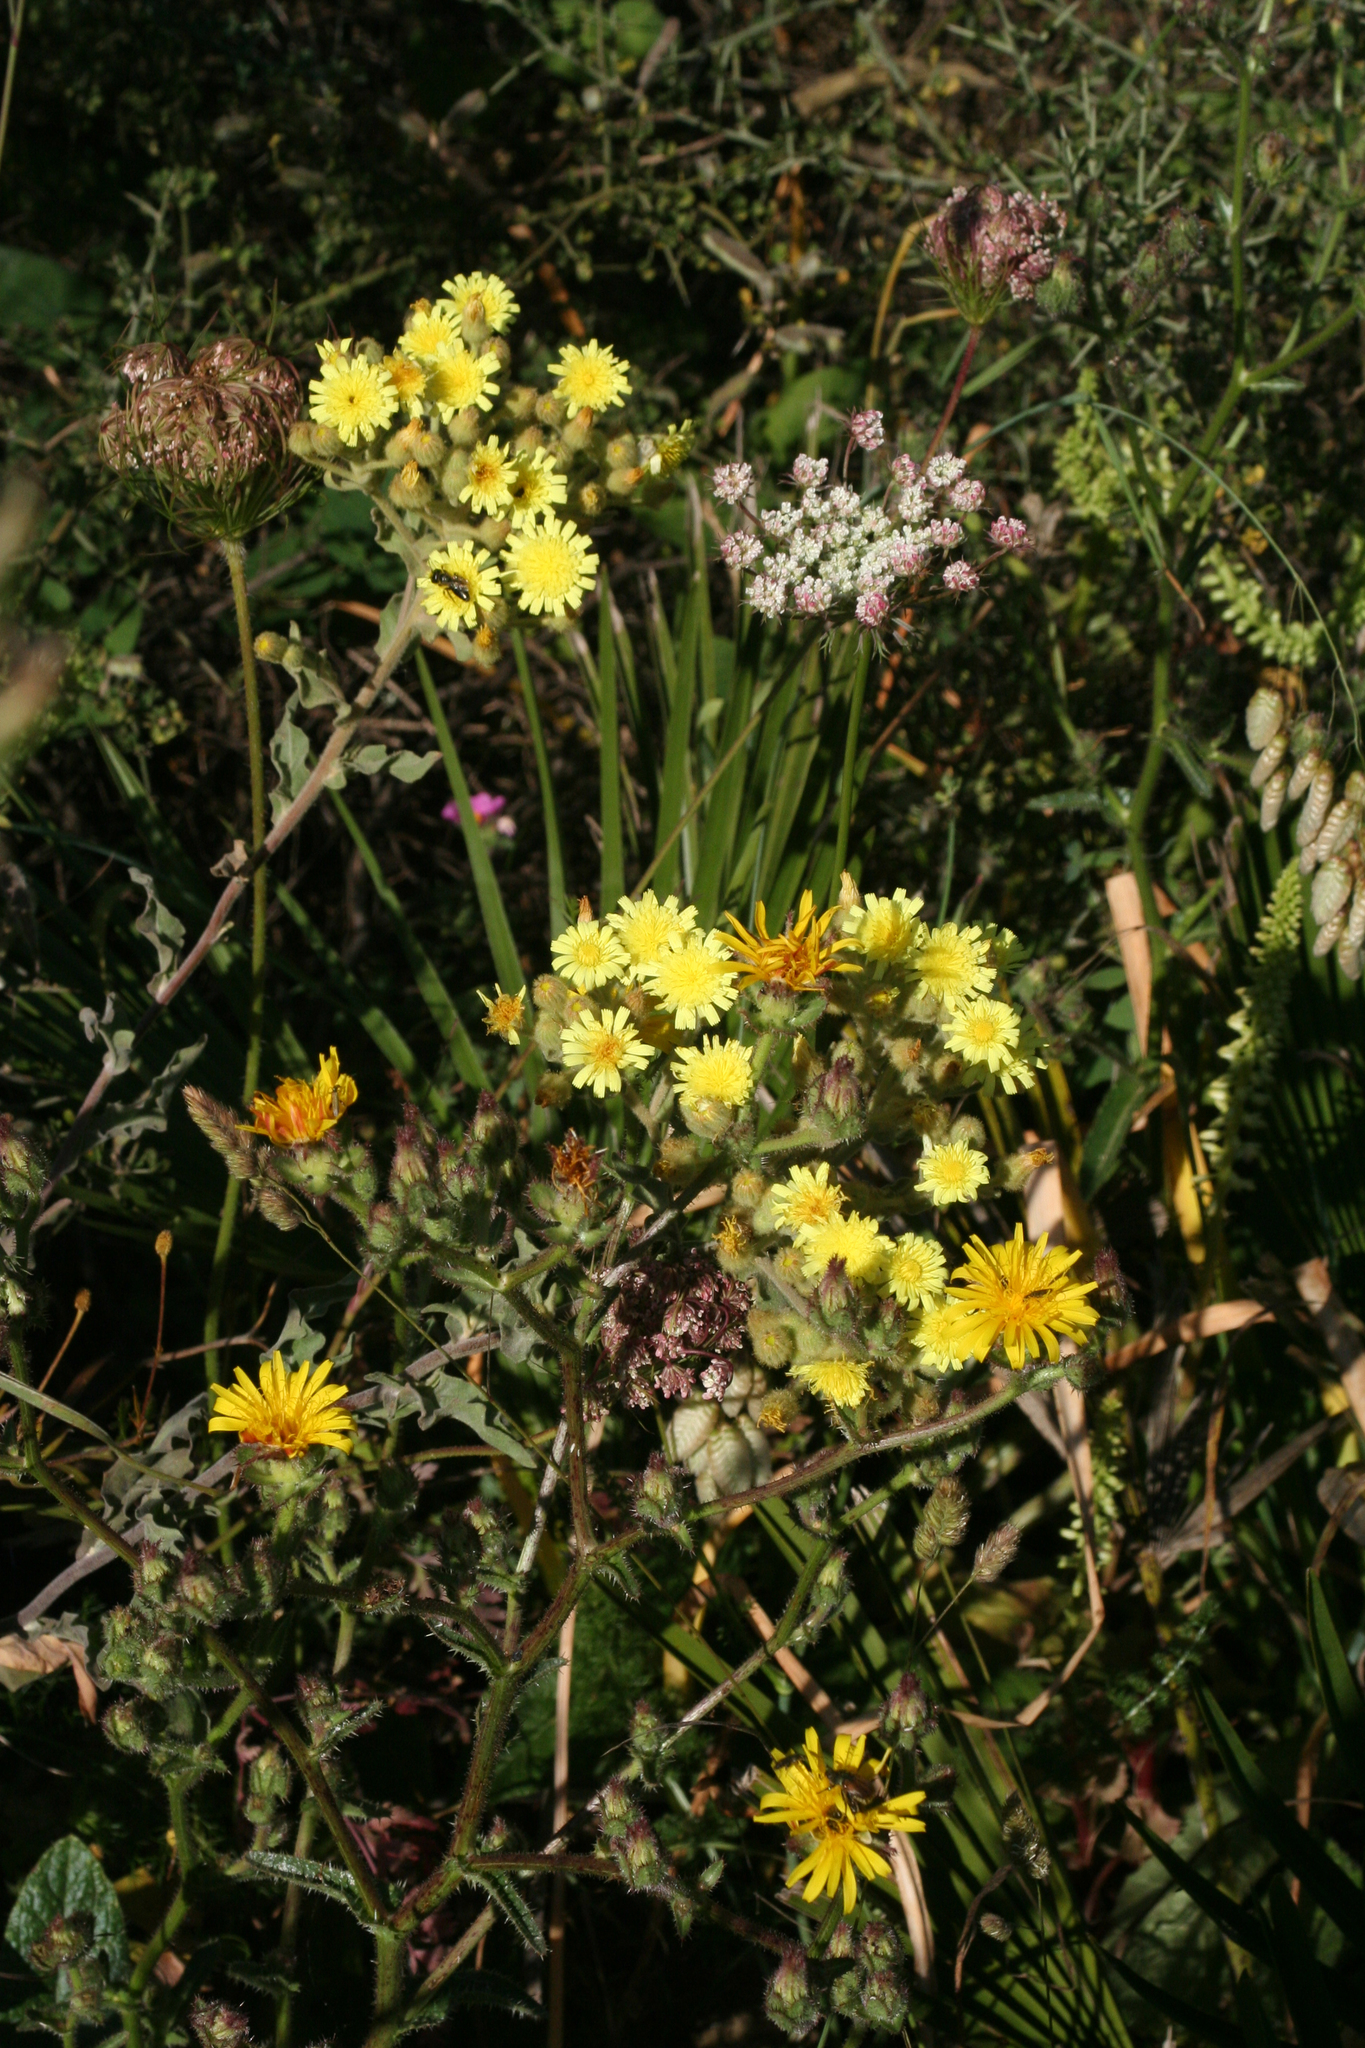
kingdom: Plantae
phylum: Tracheophyta
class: Magnoliopsida
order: Asterales
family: Asteraceae
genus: Andryala
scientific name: Andryala integrifolia
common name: Common andryala
